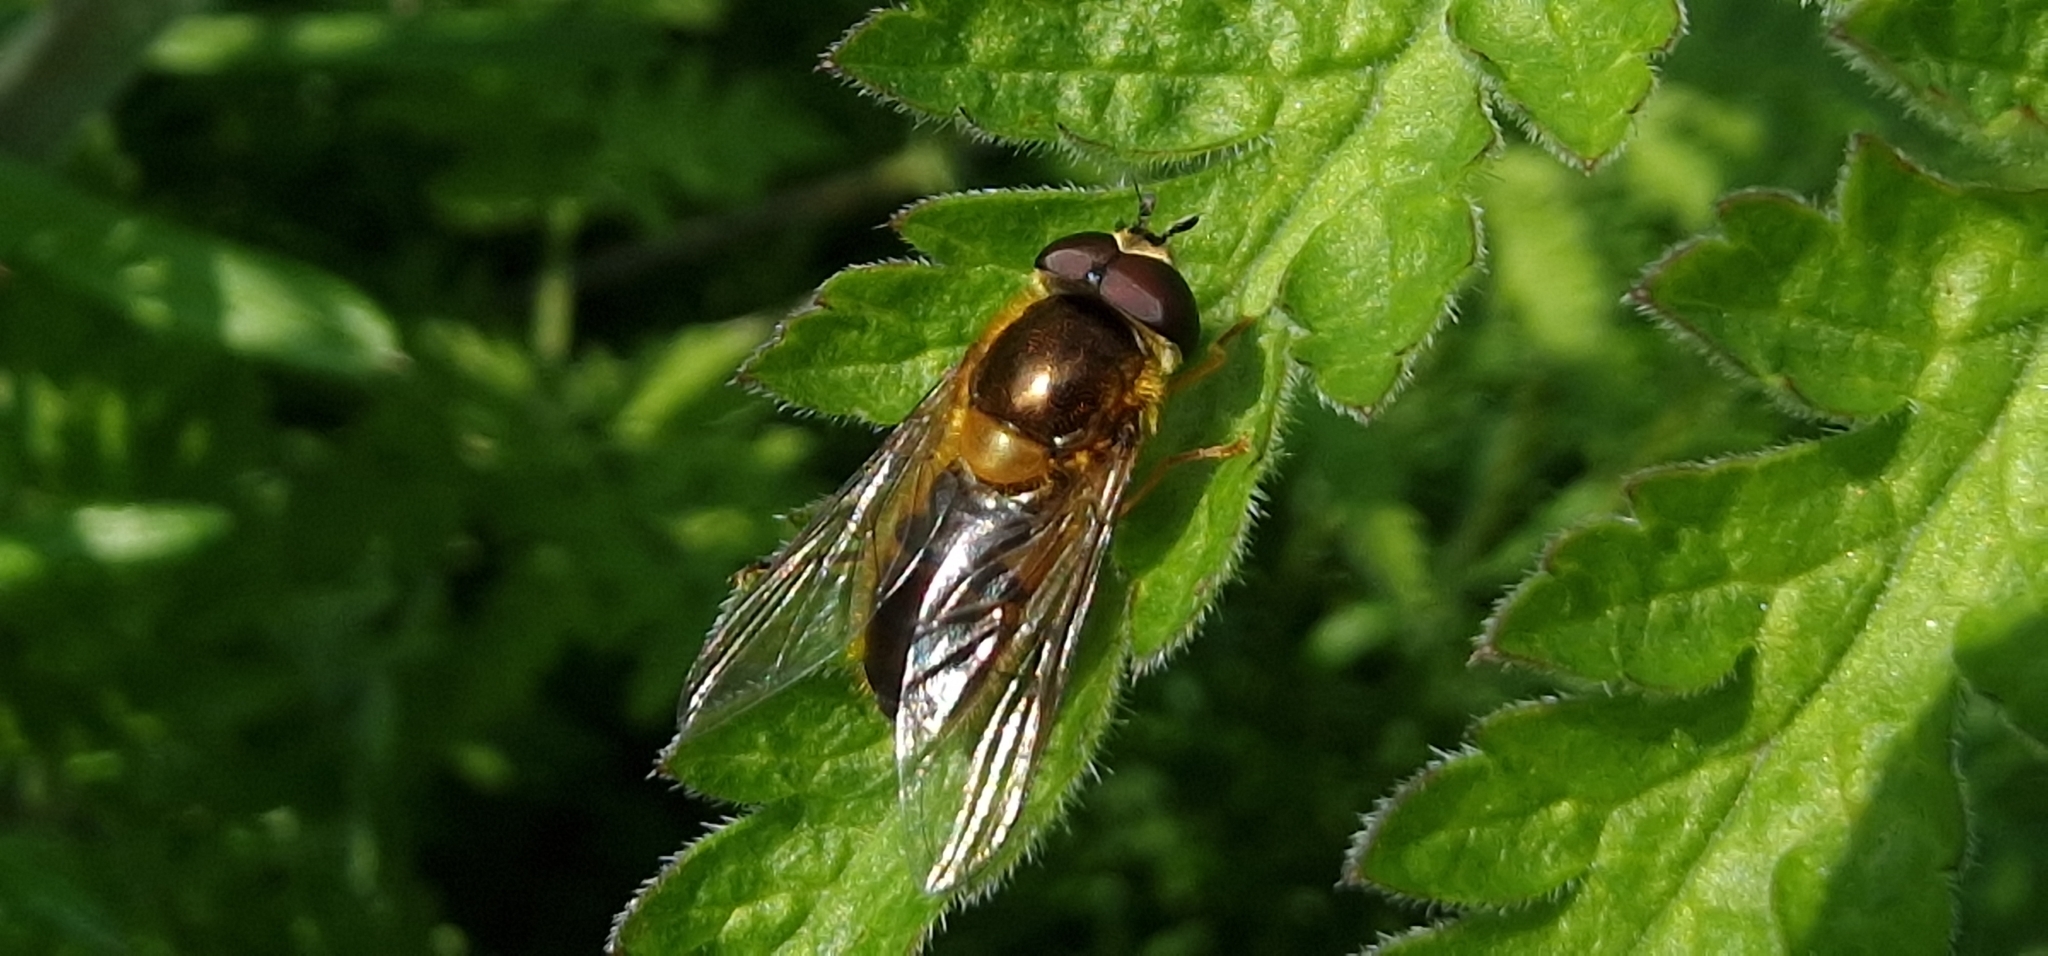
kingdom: Animalia
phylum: Arthropoda
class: Insecta
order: Diptera
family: Syrphidae
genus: Epistrophe
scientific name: Epistrophe eligans
